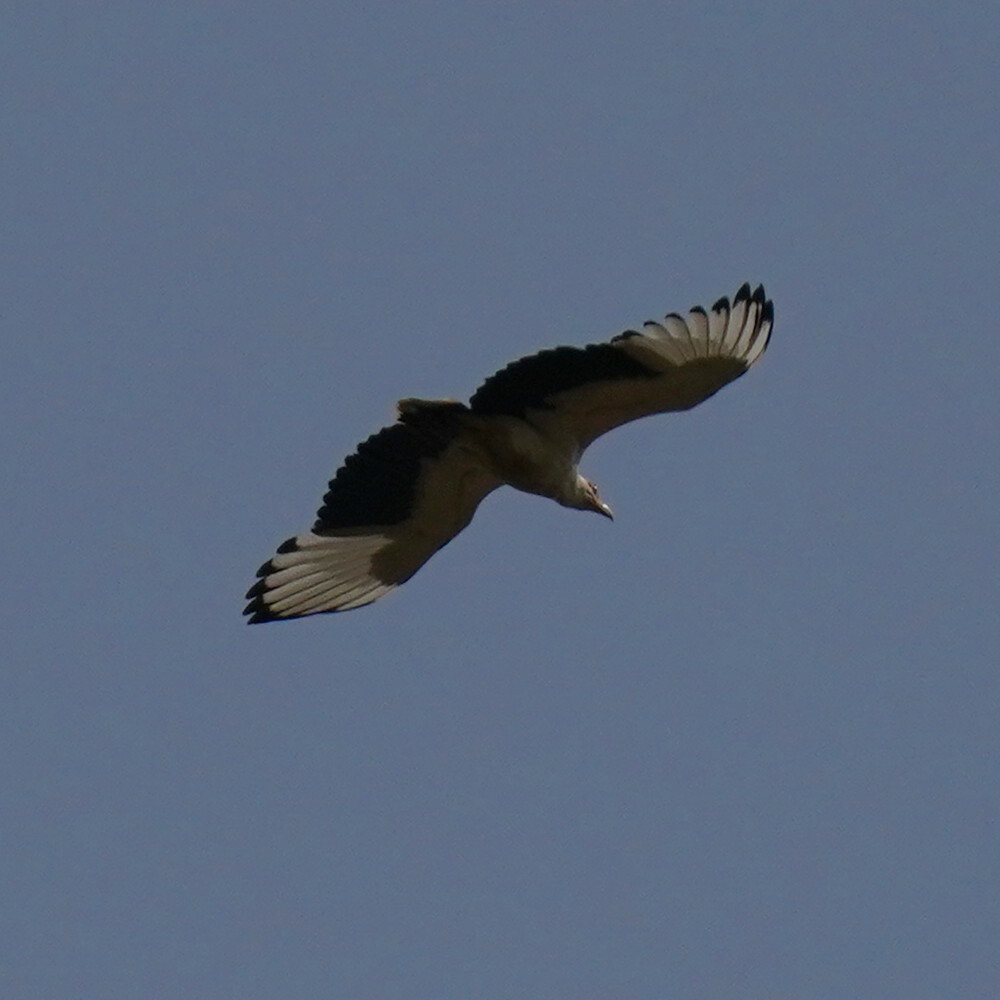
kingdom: Animalia
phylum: Chordata
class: Aves
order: Accipitriformes
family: Accipitridae
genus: Gypohierax
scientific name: Gypohierax angolensis
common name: Palm-nut vulture
